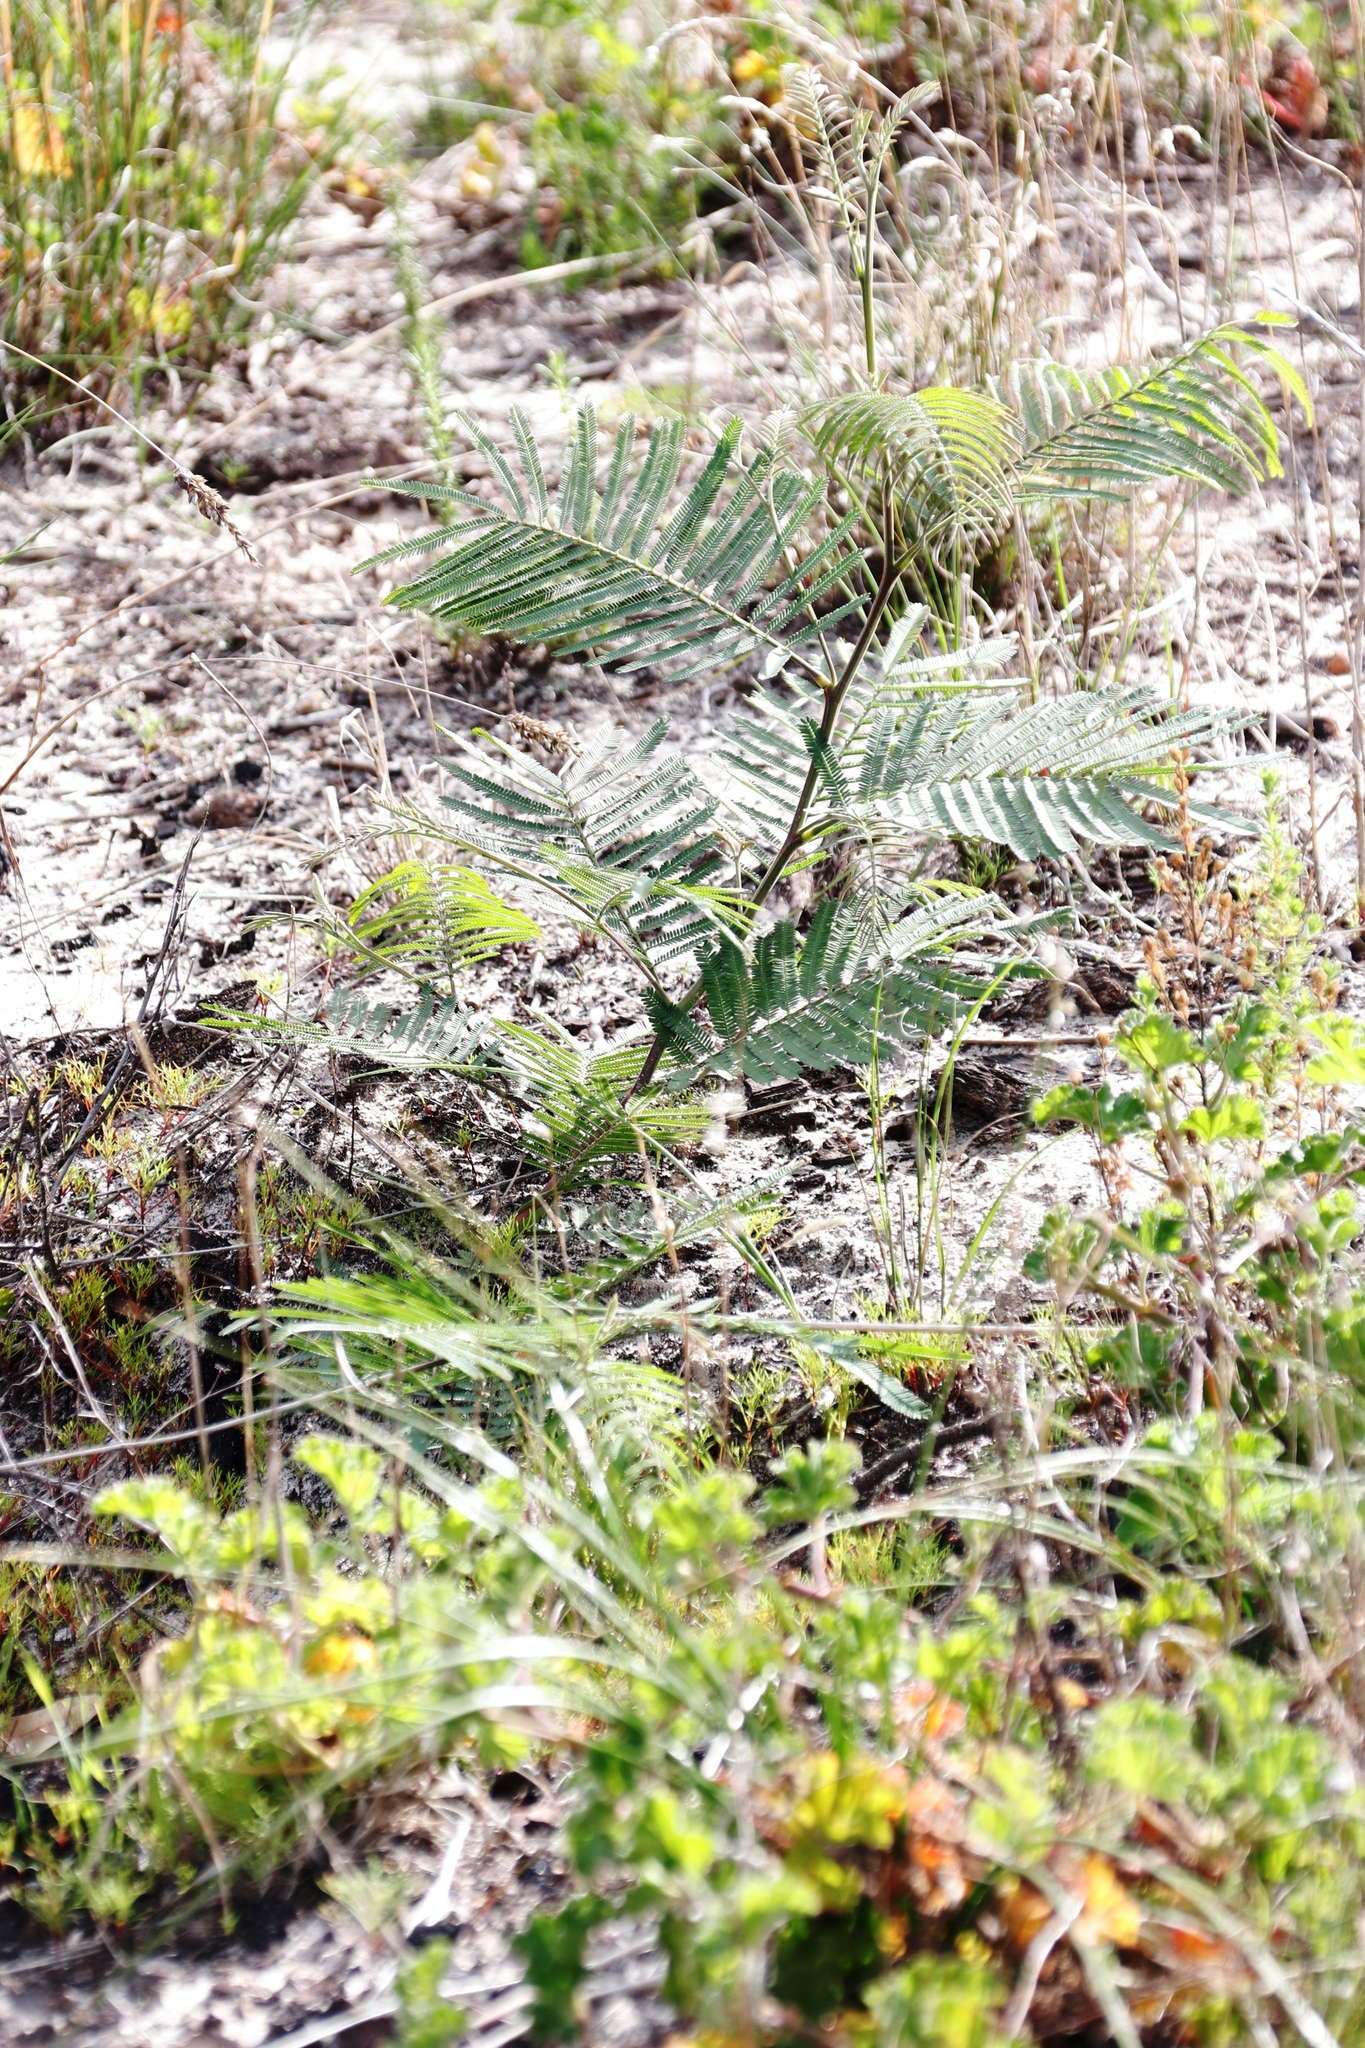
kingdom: Plantae
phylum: Tracheophyta
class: Magnoliopsida
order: Fabales
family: Fabaceae
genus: Acacia
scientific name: Acacia mearnsii
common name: Black wattle
